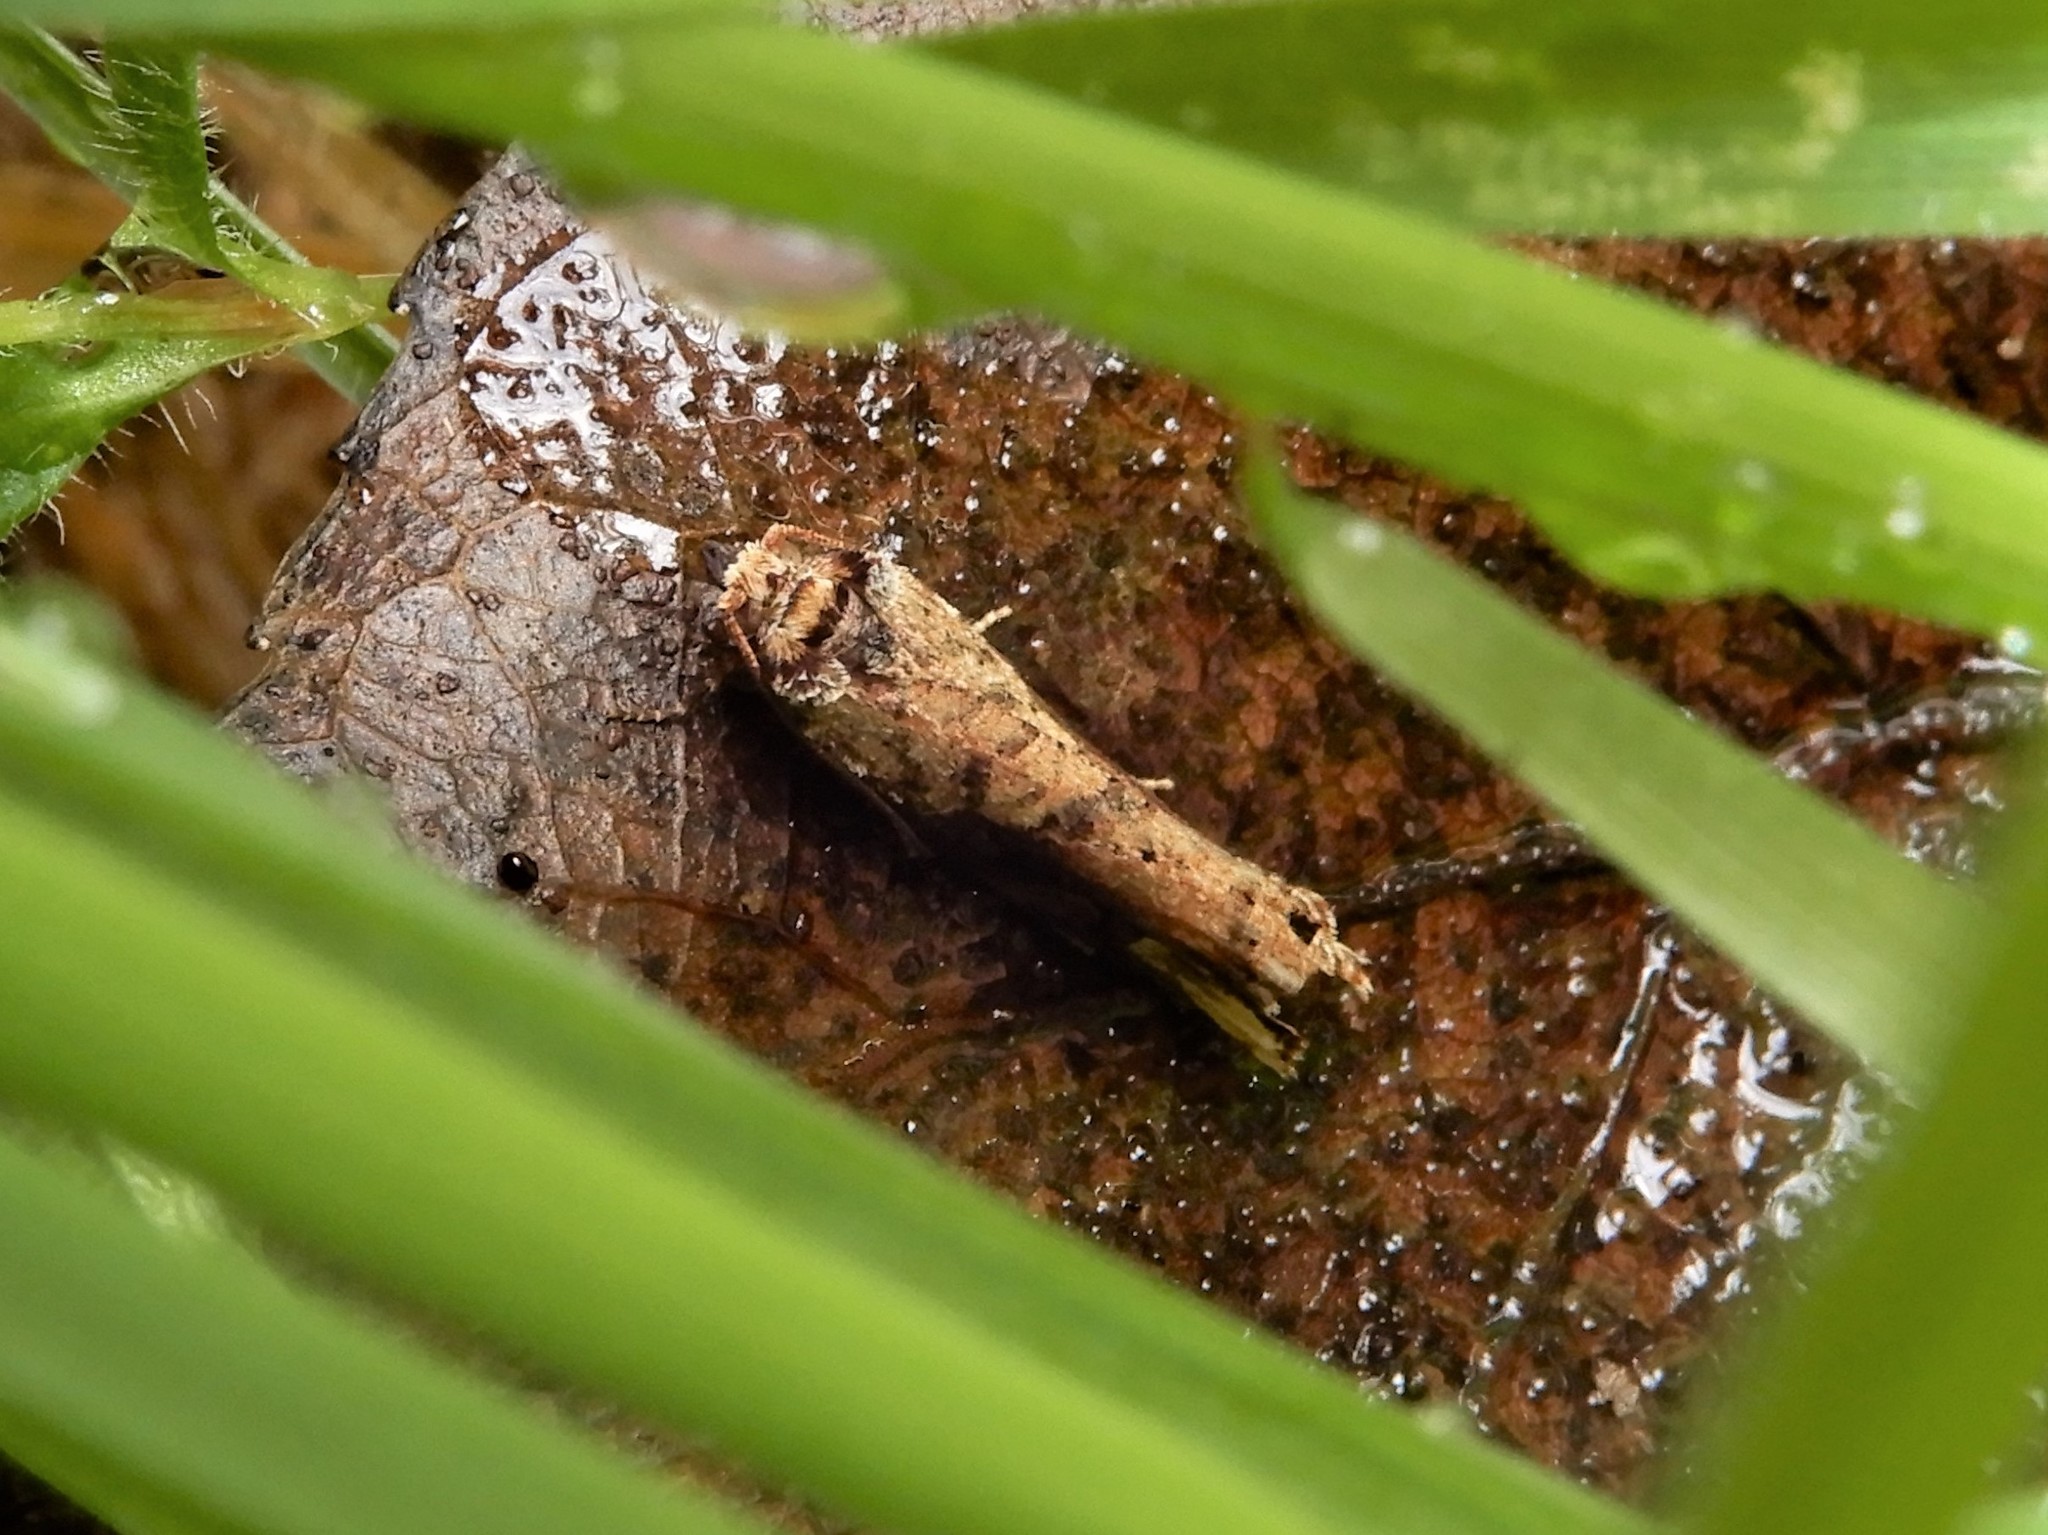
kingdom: Animalia
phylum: Arthropoda
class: Insecta
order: Lepidoptera
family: Tortricidae
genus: Epalxiphora
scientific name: Epalxiphora axenana
